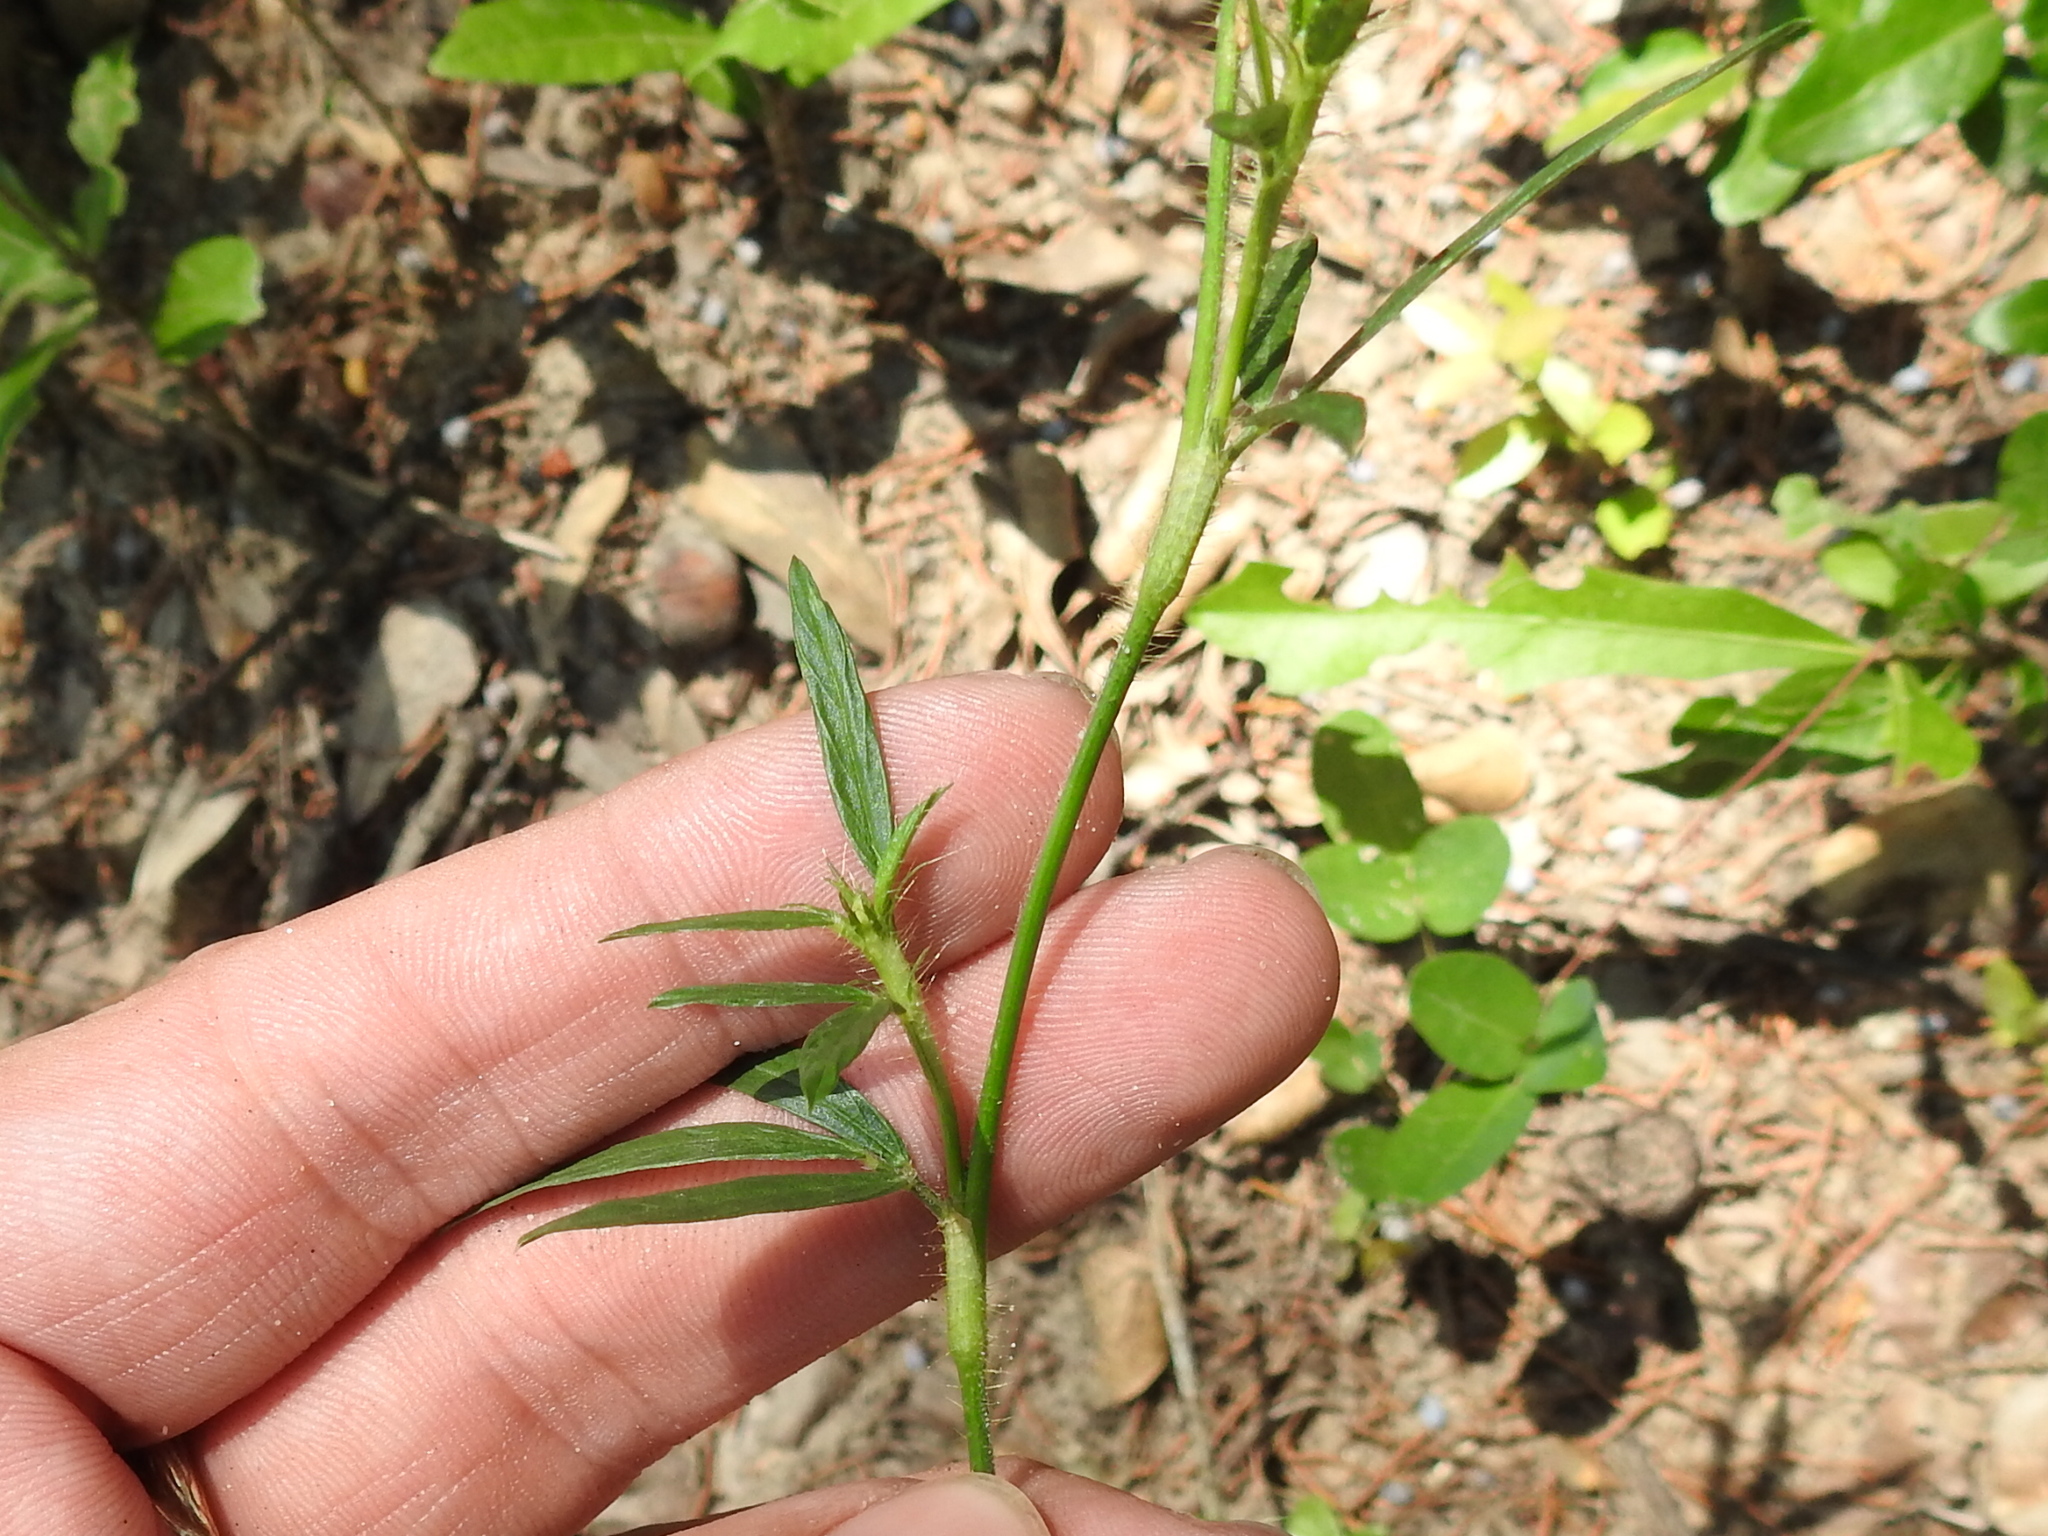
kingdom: Plantae
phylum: Tracheophyta
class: Magnoliopsida
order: Fabales
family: Fabaceae
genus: Stylosanthes
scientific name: Stylosanthes biflora
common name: Two-flower pencil-flower
